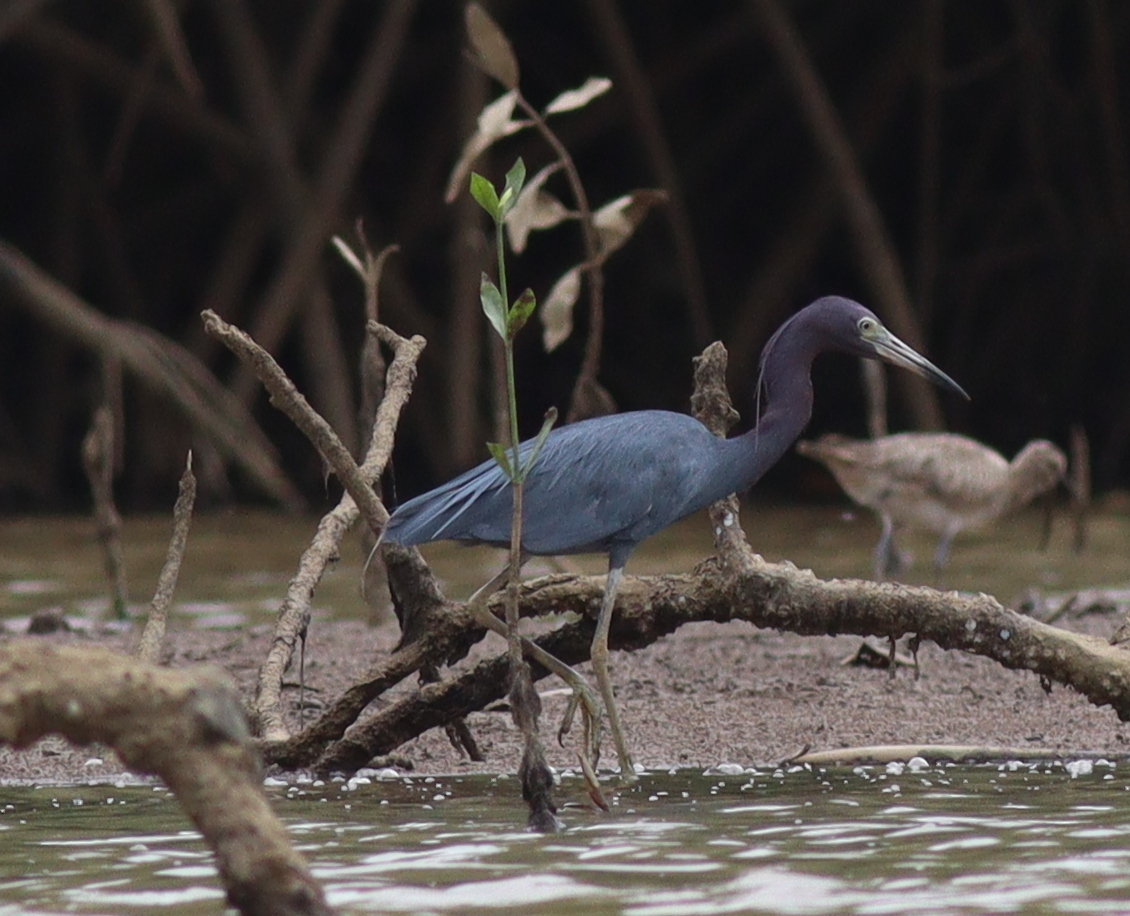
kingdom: Animalia
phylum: Chordata
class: Aves
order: Pelecaniformes
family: Ardeidae
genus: Egretta
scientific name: Egretta caerulea
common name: Little blue heron
